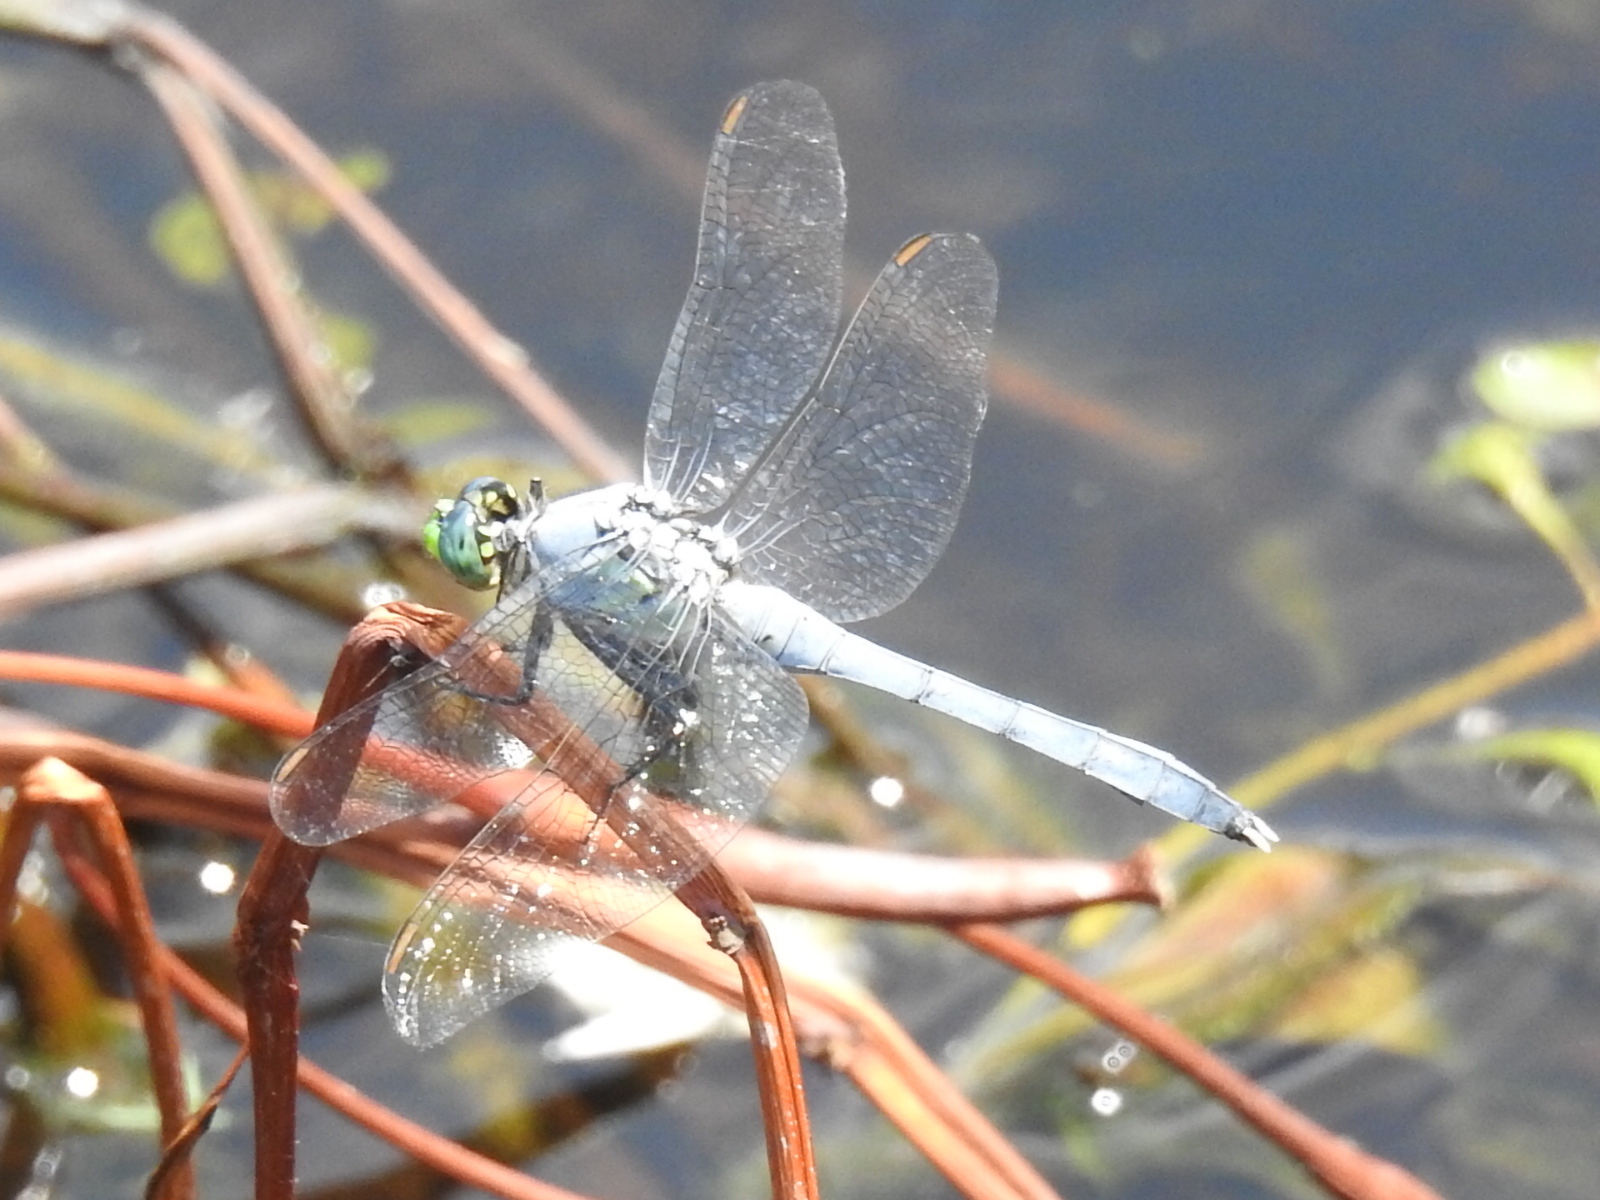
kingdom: Animalia
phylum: Arthropoda
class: Insecta
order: Odonata
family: Libellulidae
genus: Erythemis
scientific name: Erythemis simplicicollis
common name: Eastern pondhawk
